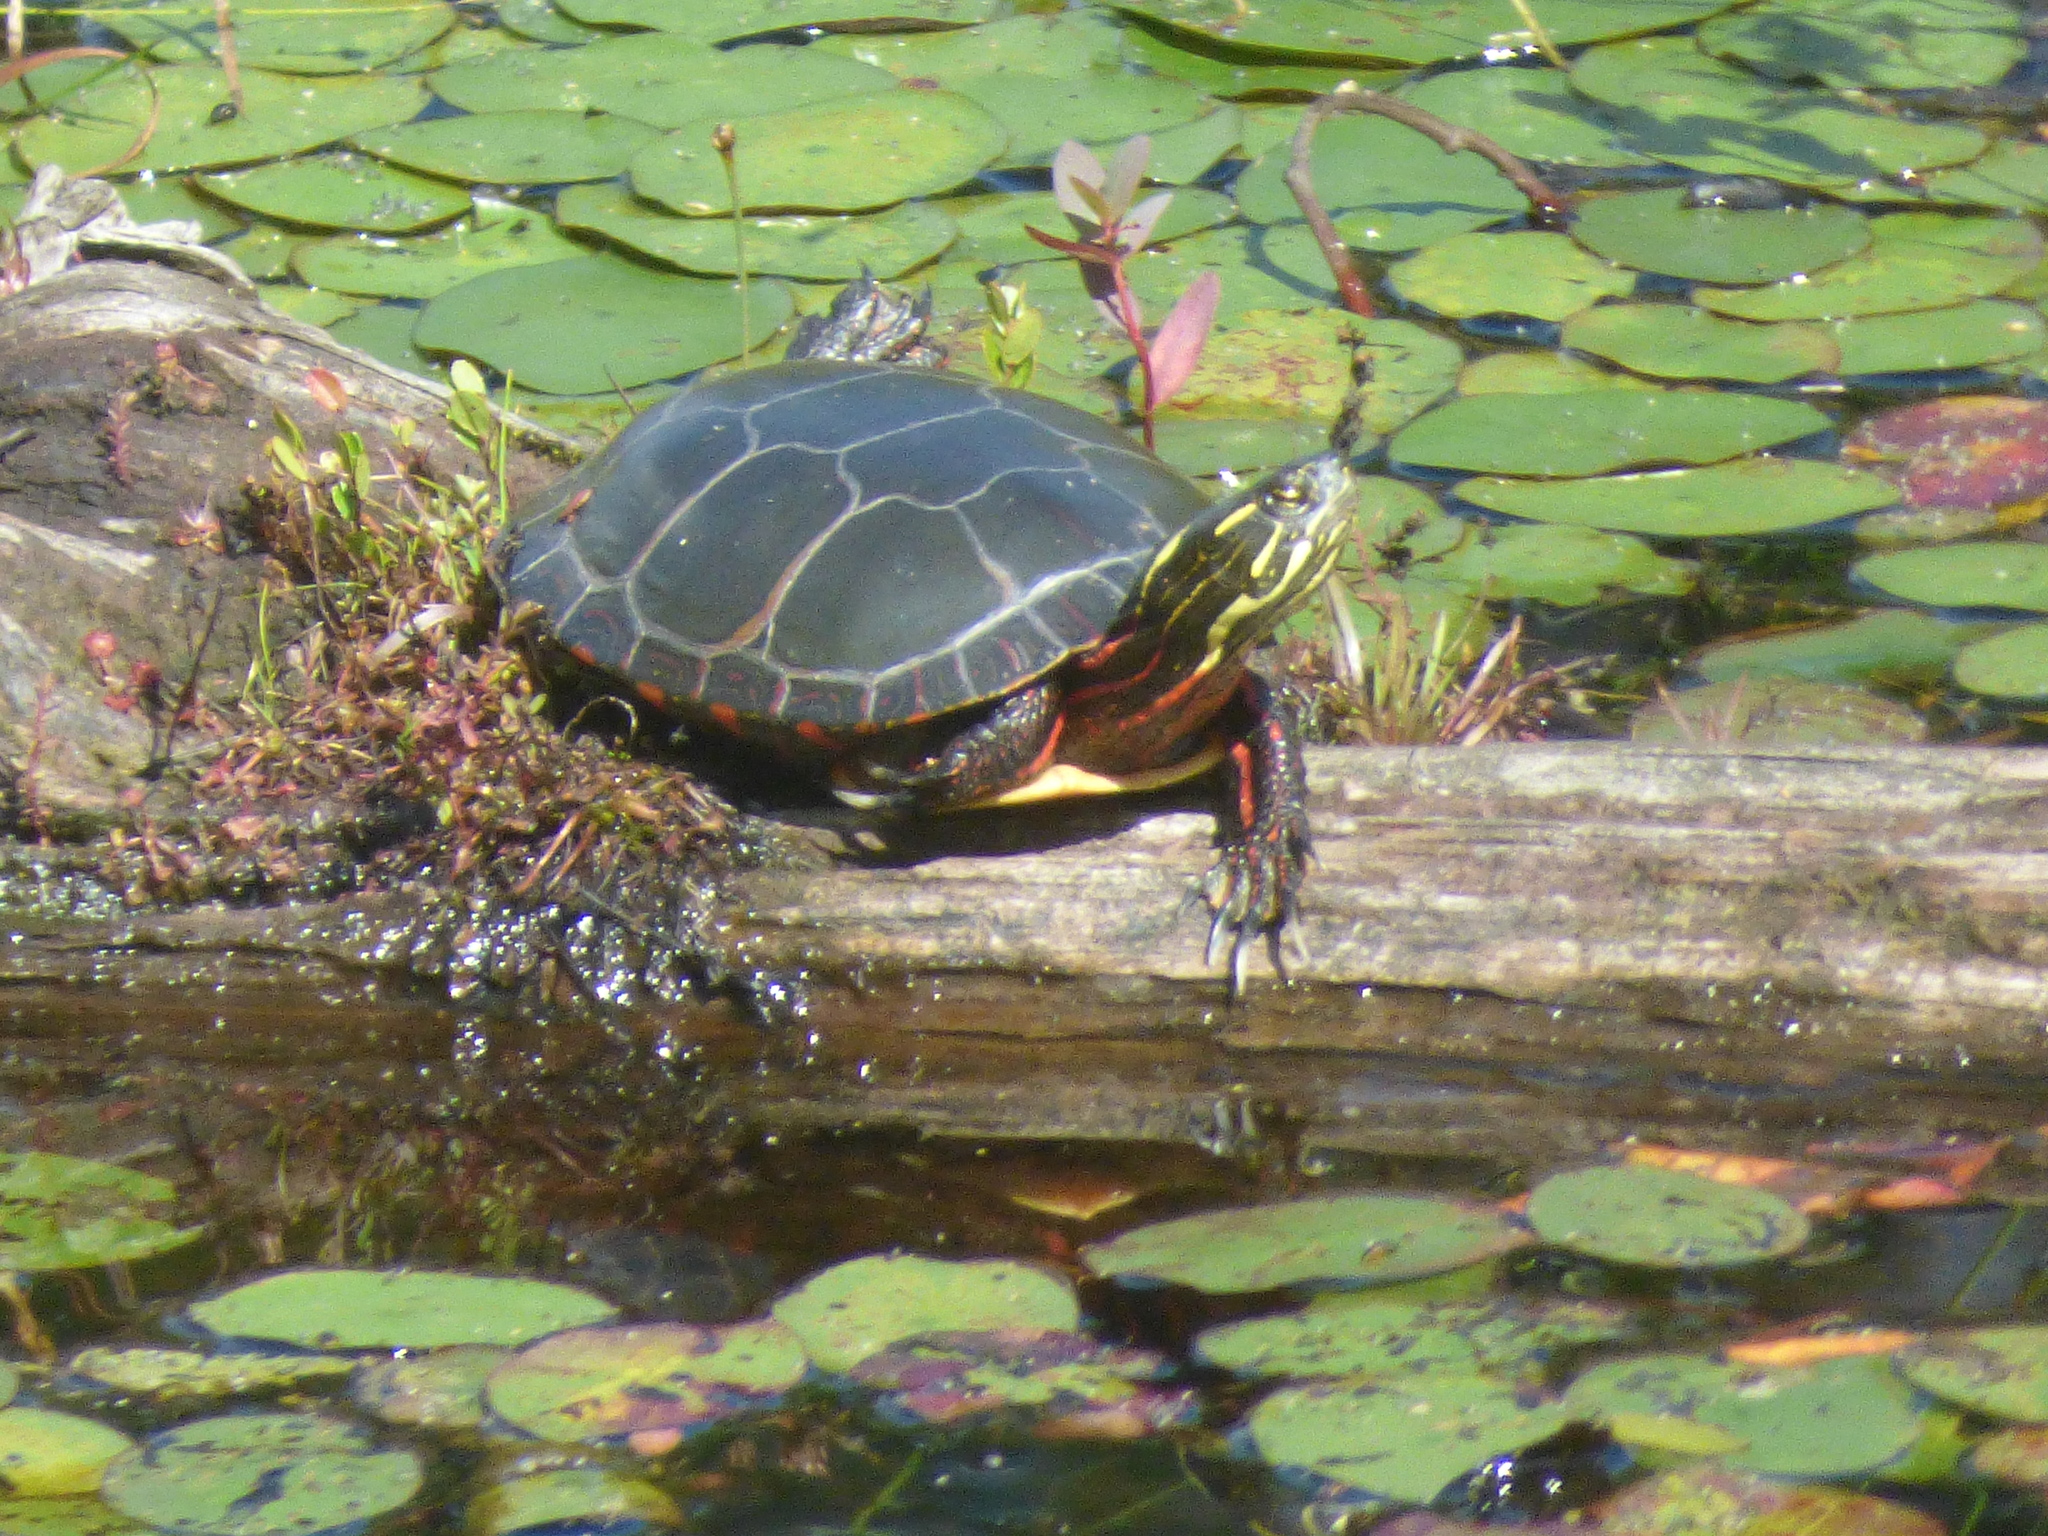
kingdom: Animalia
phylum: Chordata
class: Testudines
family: Emydidae
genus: Chrysemys
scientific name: Chrysemys picta
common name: Painted turtle
